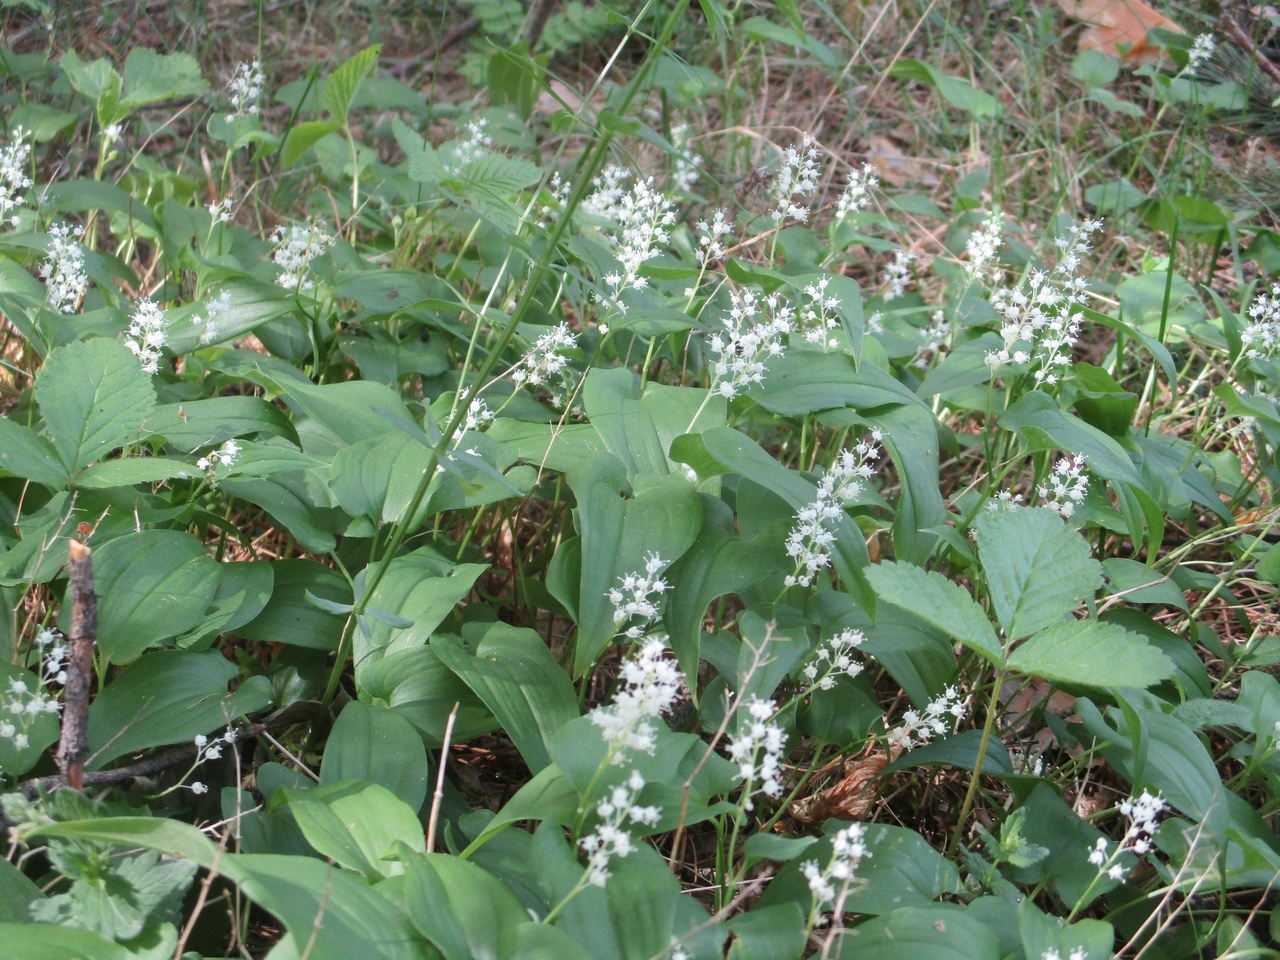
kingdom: Plantae
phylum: Tracheophyta
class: Liliopsida
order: Asparagales
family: Asparagaceae
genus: Maianthemum
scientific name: Maianthemum bifolium
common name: May lily
